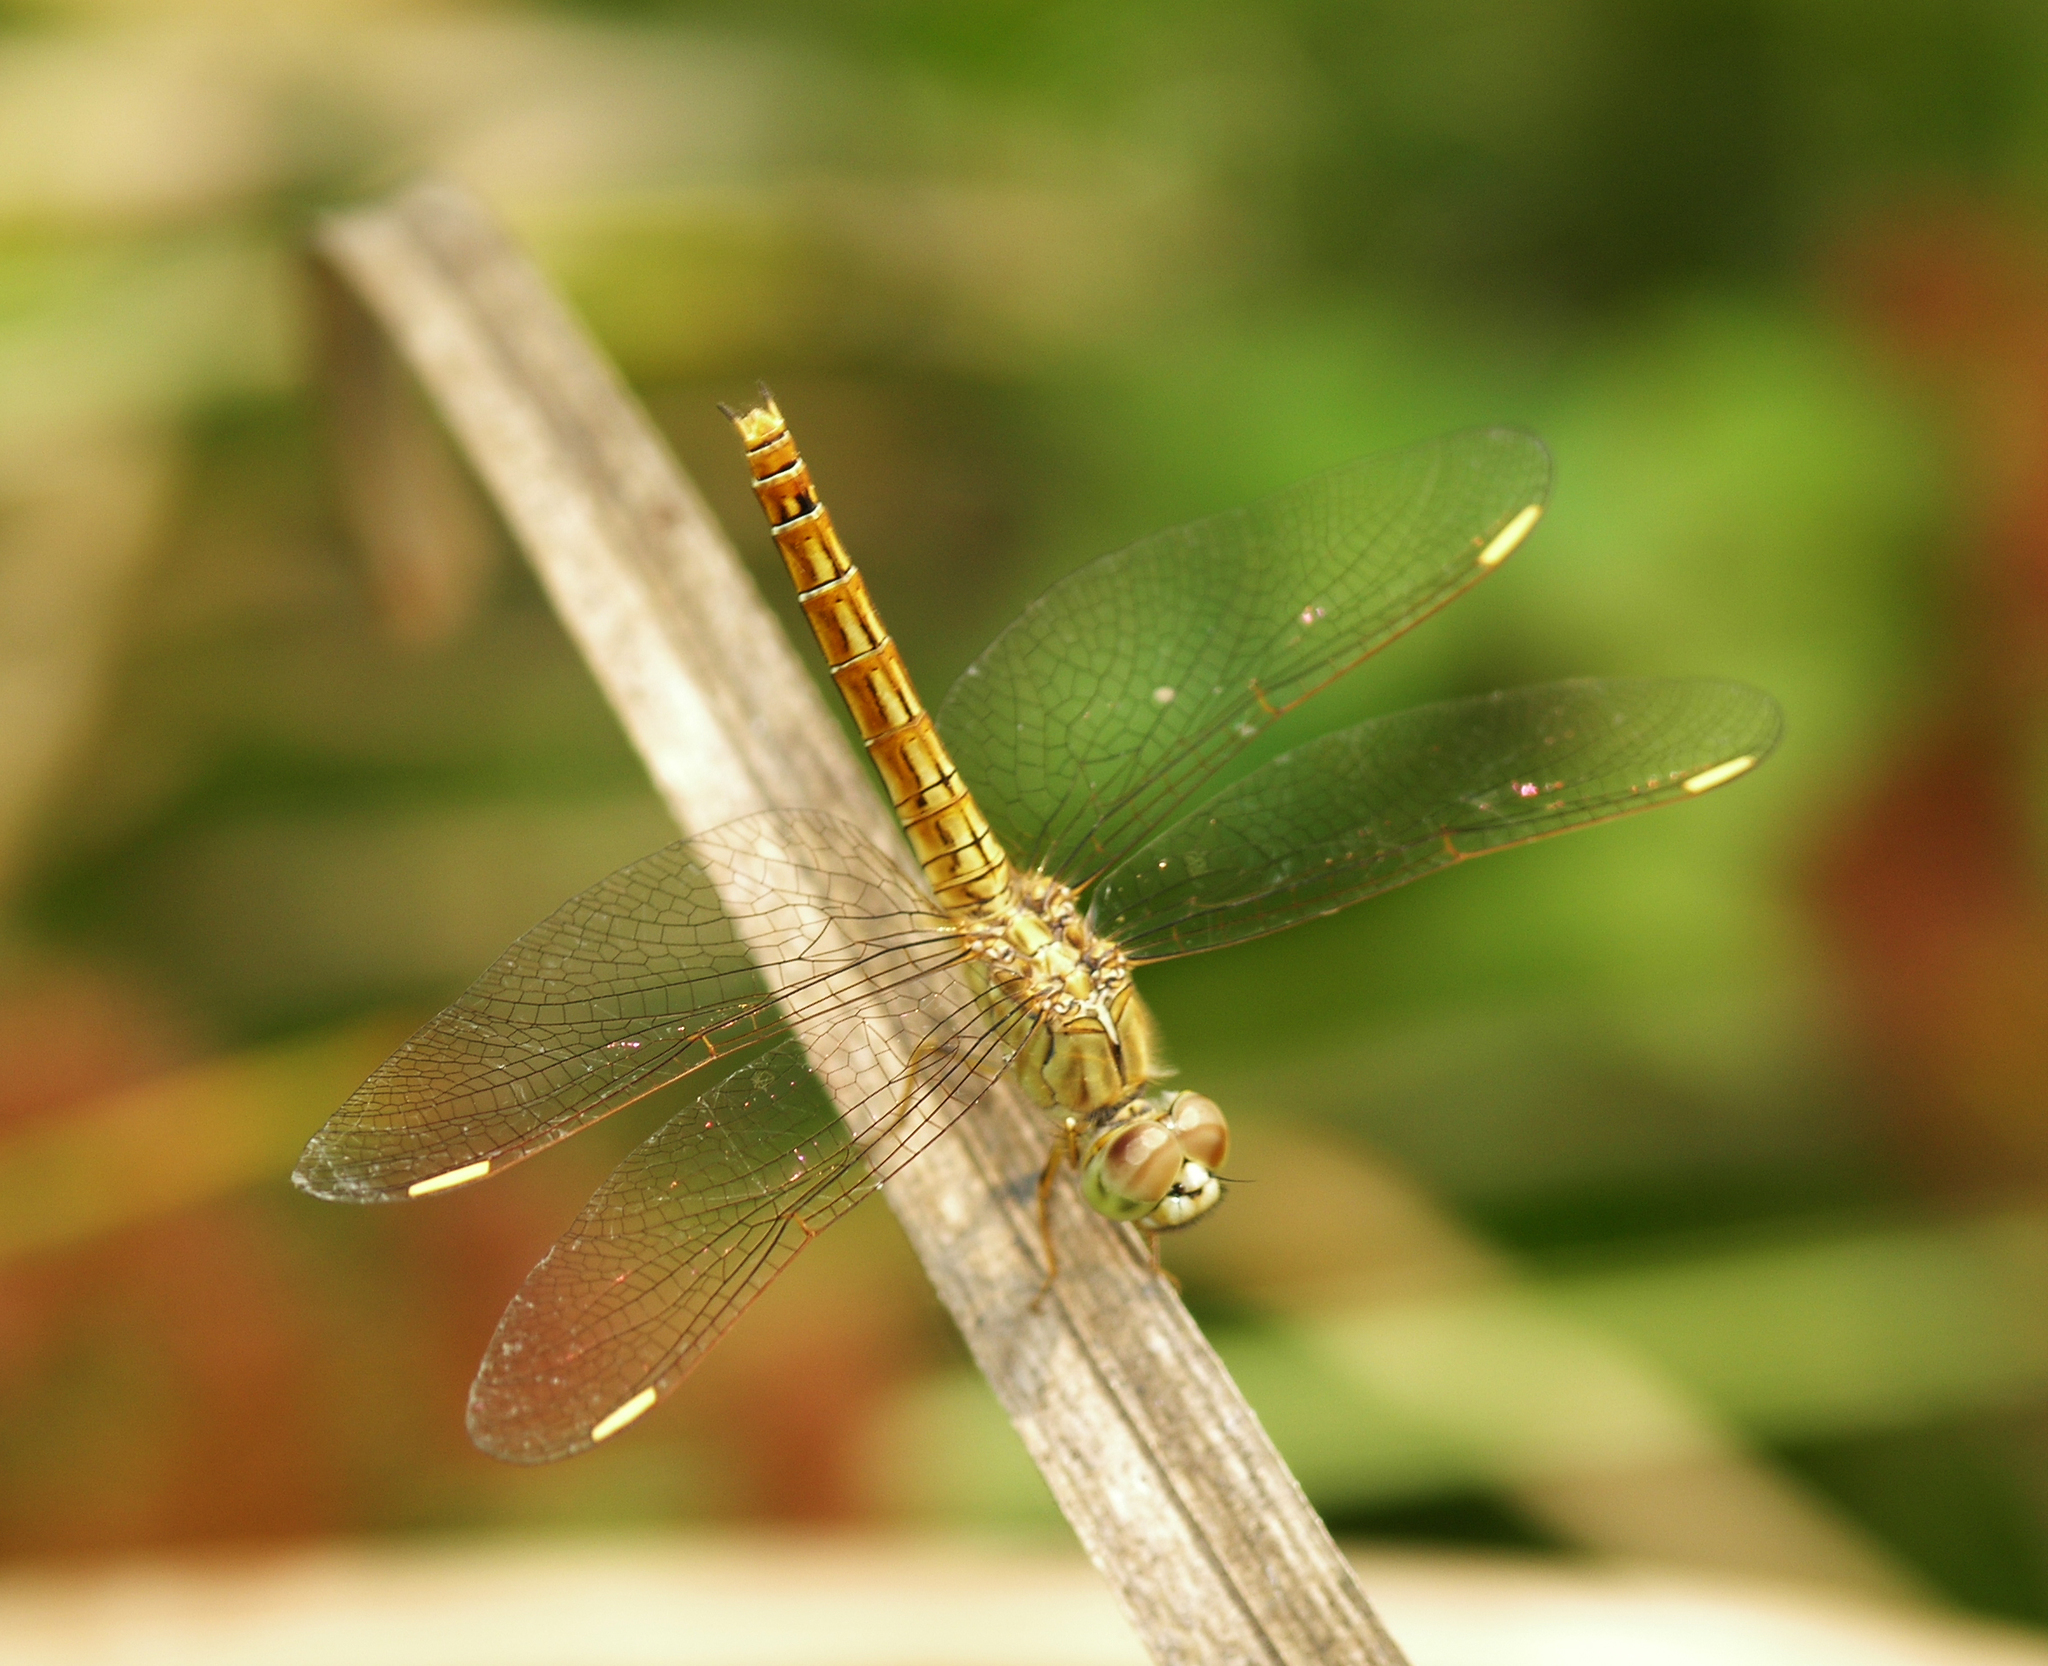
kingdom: Animalia
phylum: Arthropoda
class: Insecta
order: Odonata
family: Libellulidae
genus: Brachythemis
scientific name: Brachythemis contaminata
